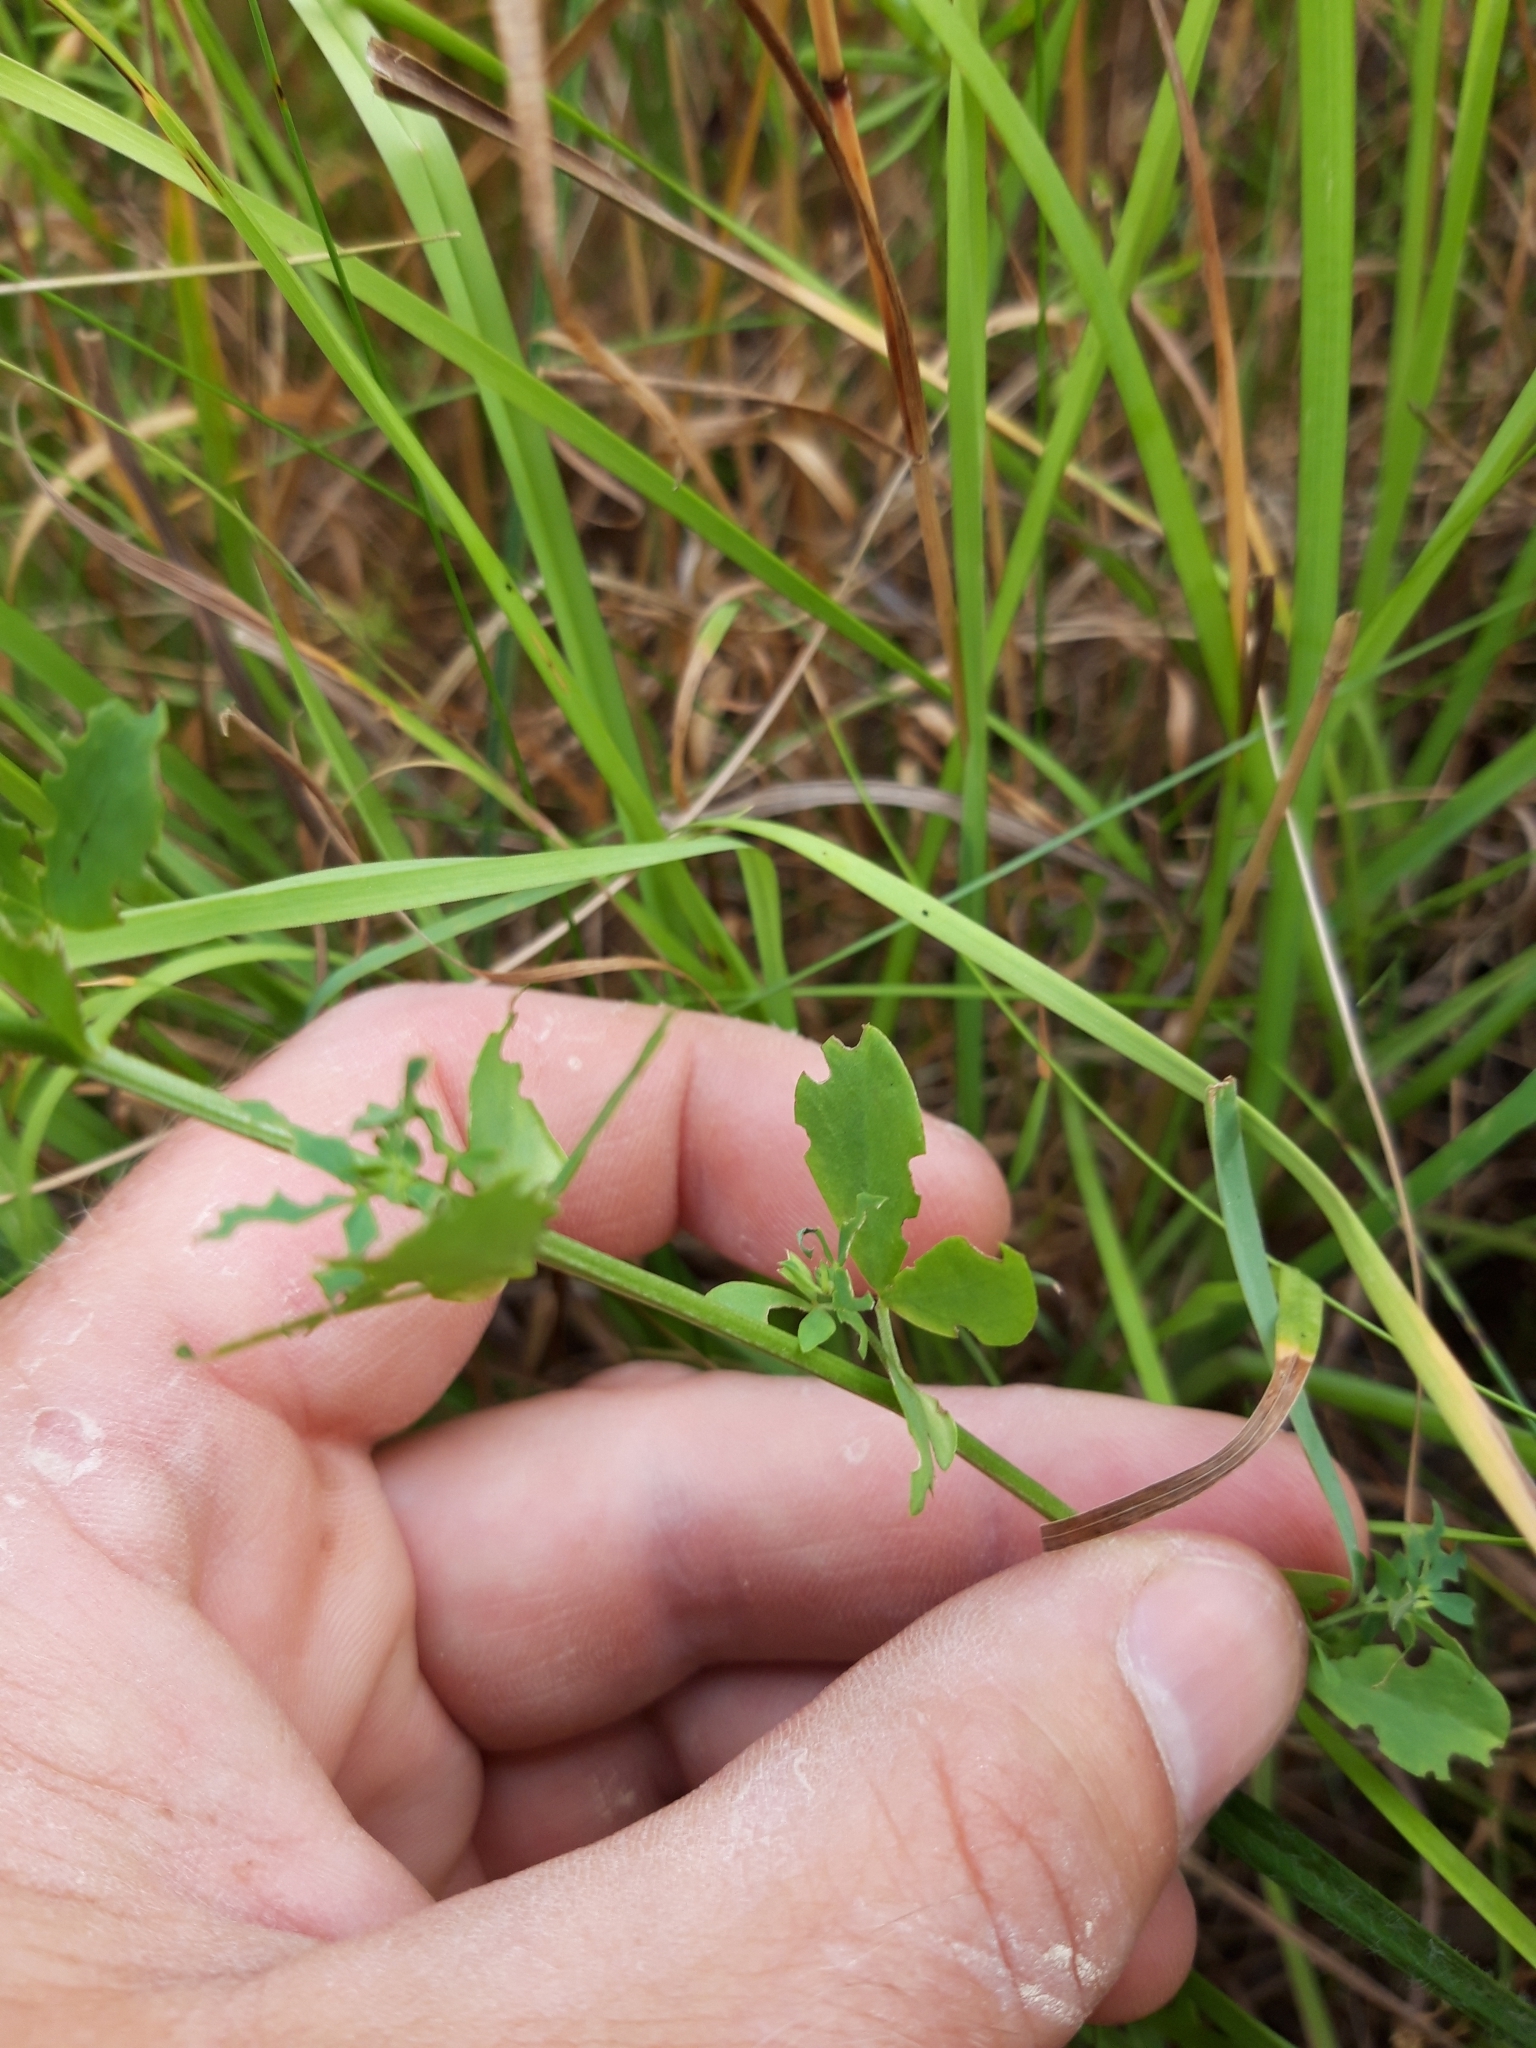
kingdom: Plantae
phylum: Tracheophyta
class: Magnoliopsida
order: Fabales
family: Fabaceae
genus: Lotus
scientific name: Lotus corniculatus
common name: Common bird's-foot-trefoil
